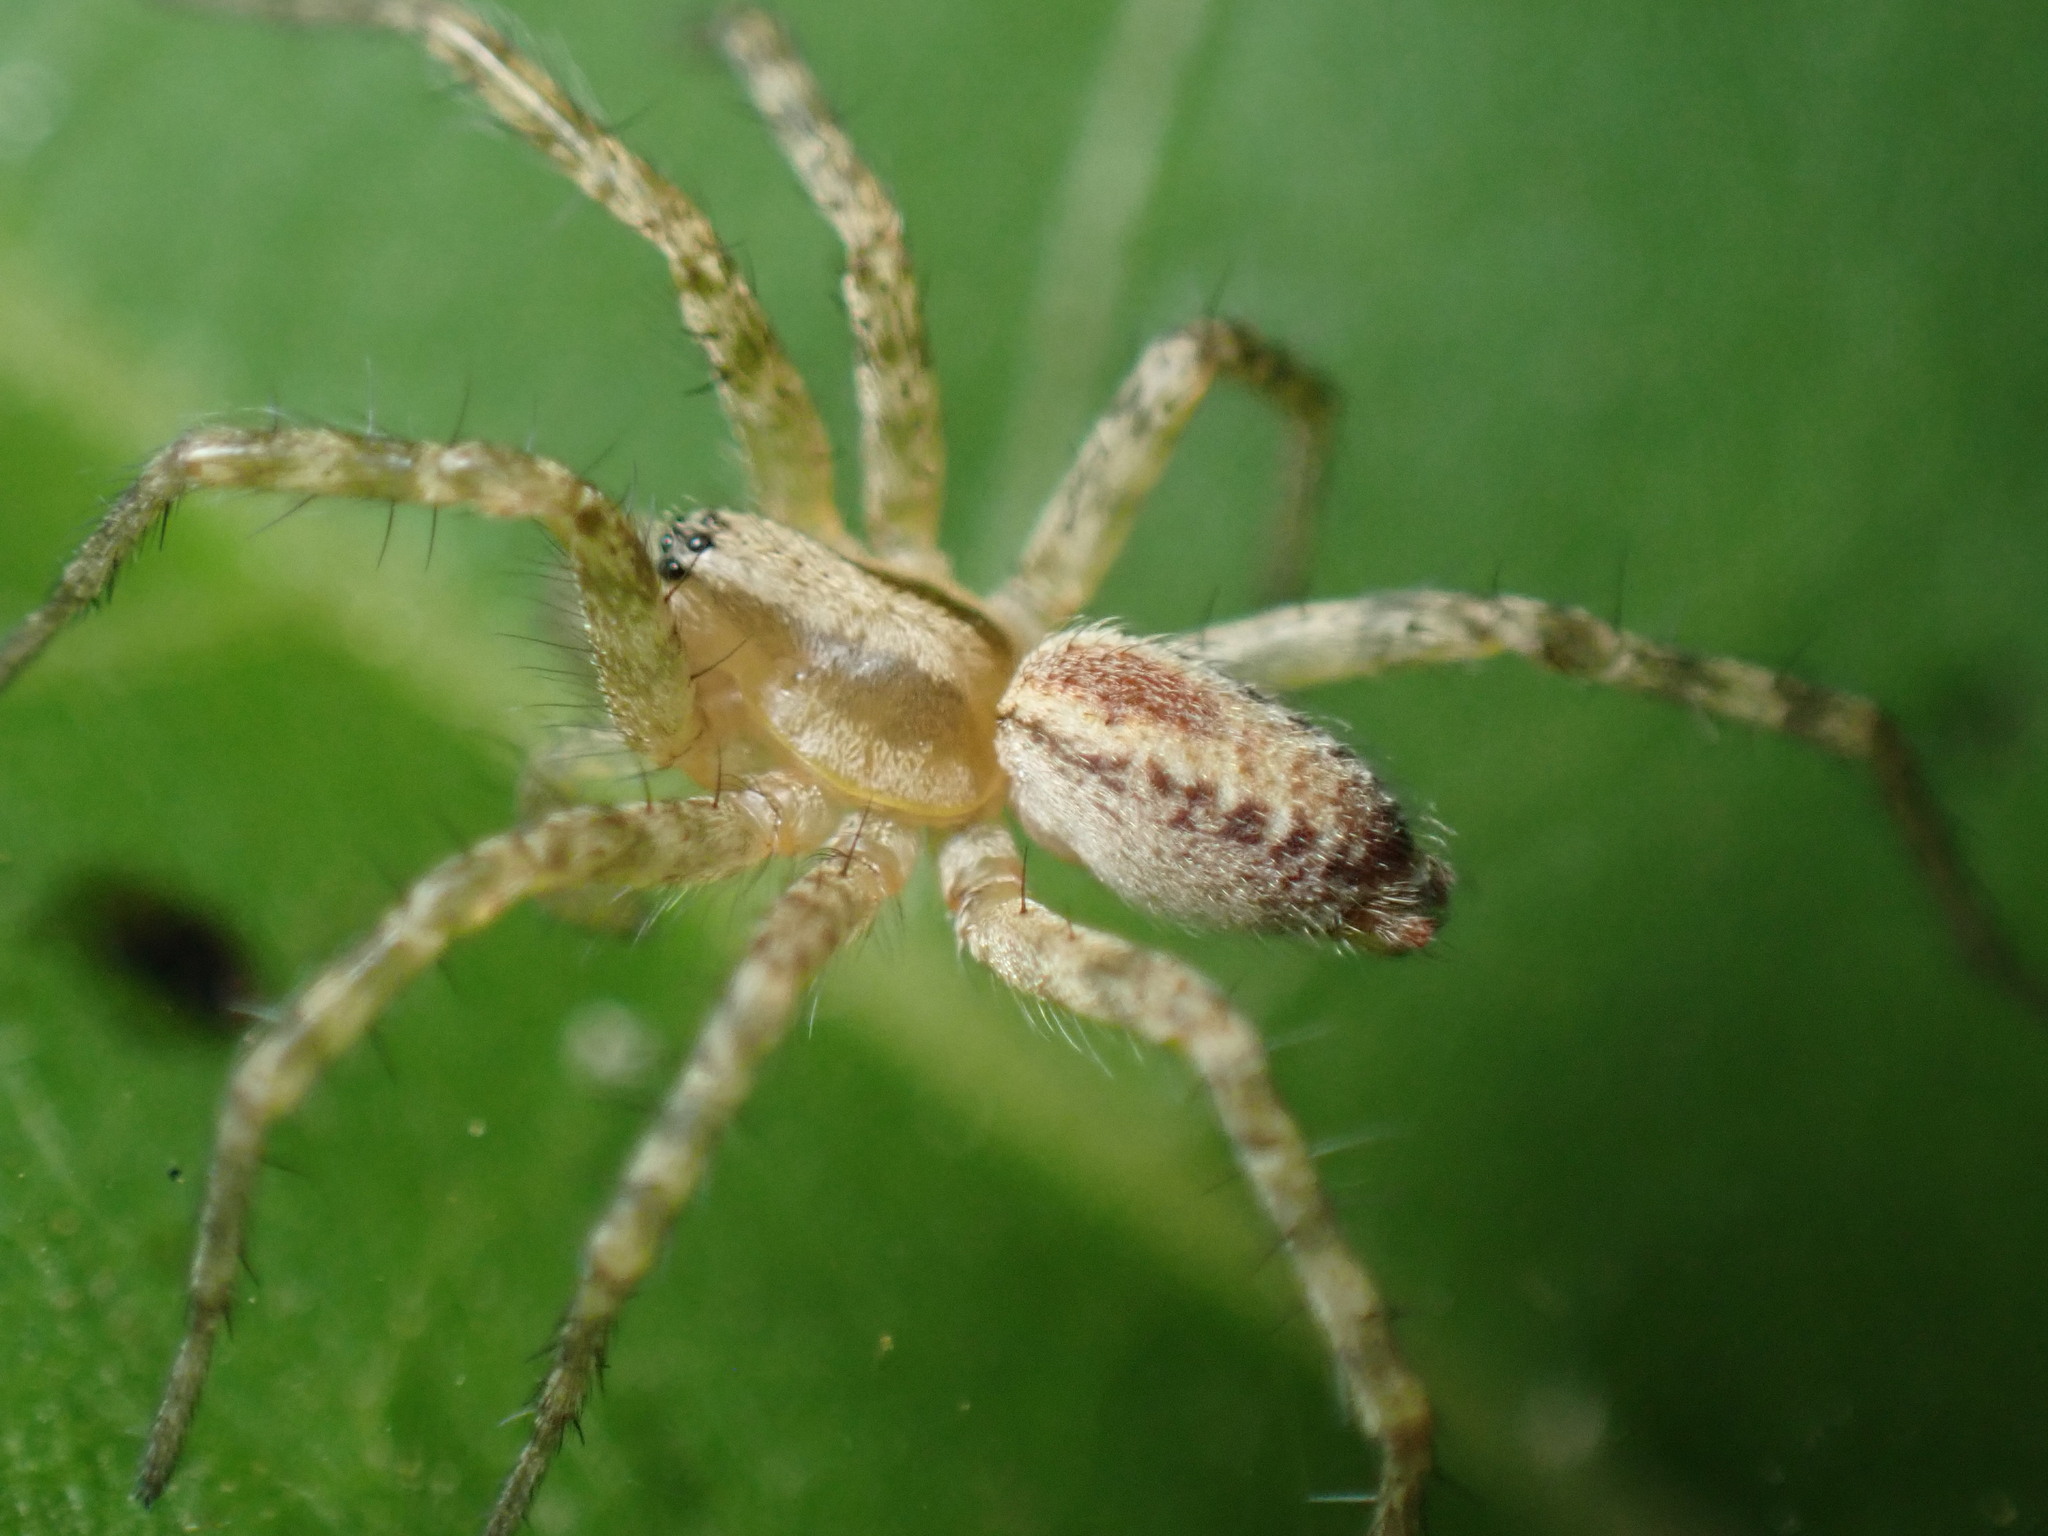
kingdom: Animalia
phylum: Arthropoda
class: Arachnida
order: Araneae
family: Agelenidae
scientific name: Agelenidae
